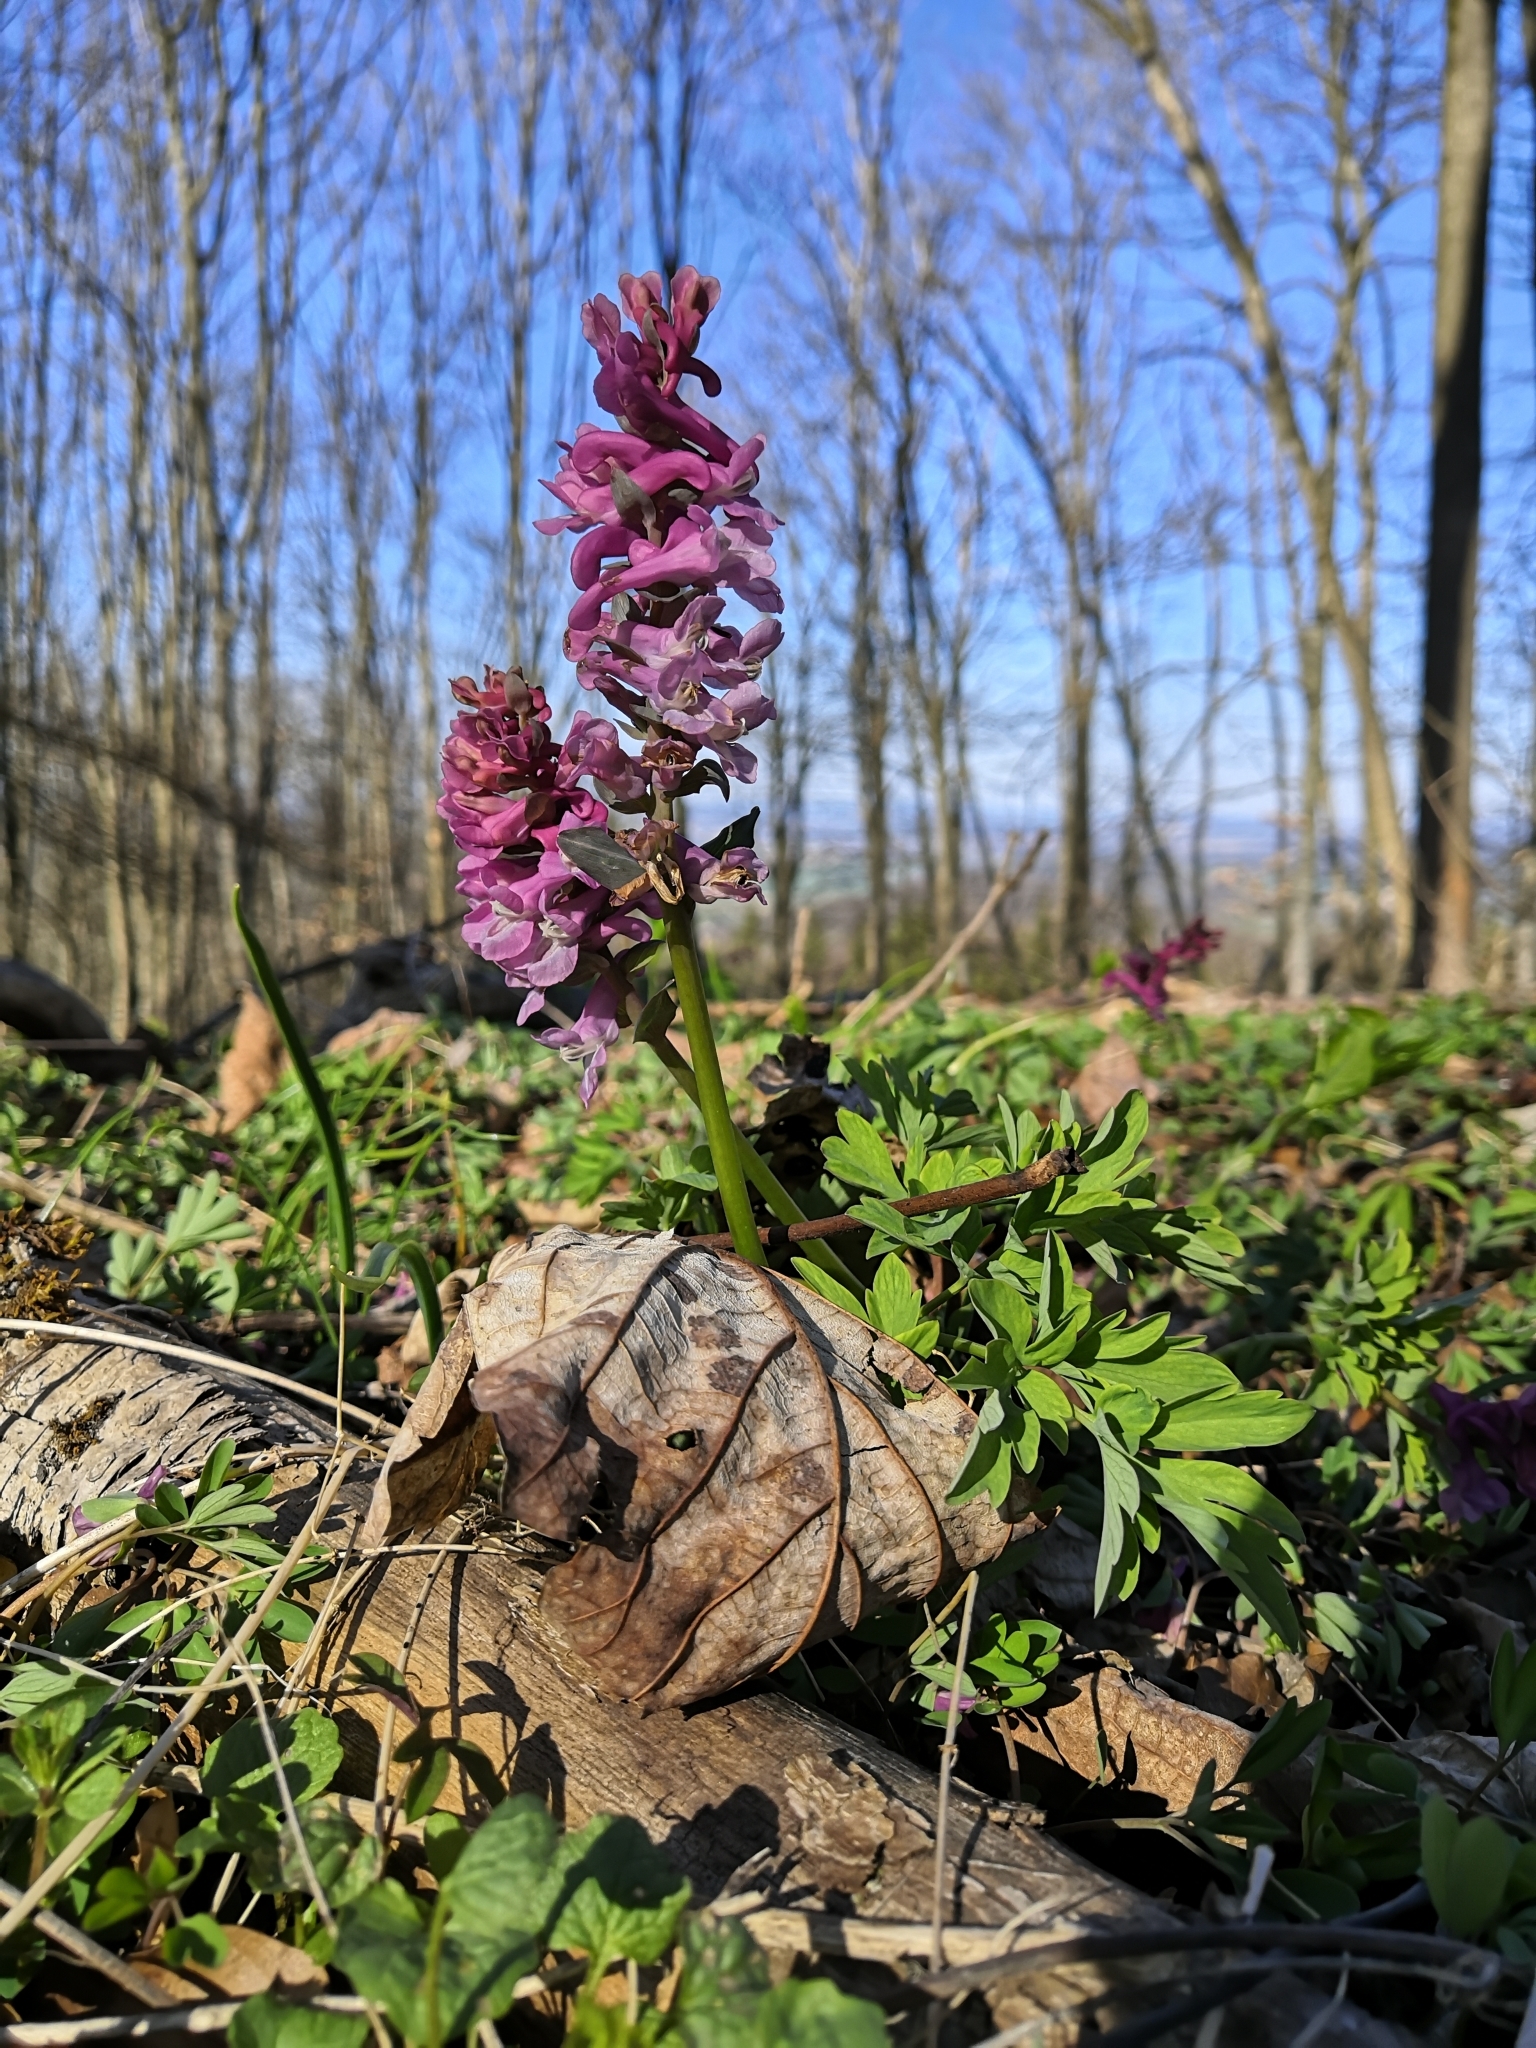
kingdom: Plantae
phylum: Tracheophyta
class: Magnoliopsida
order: Ranunculales
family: Papaveraceae
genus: Corydalis
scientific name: Corydalis cava
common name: Hollowroot
